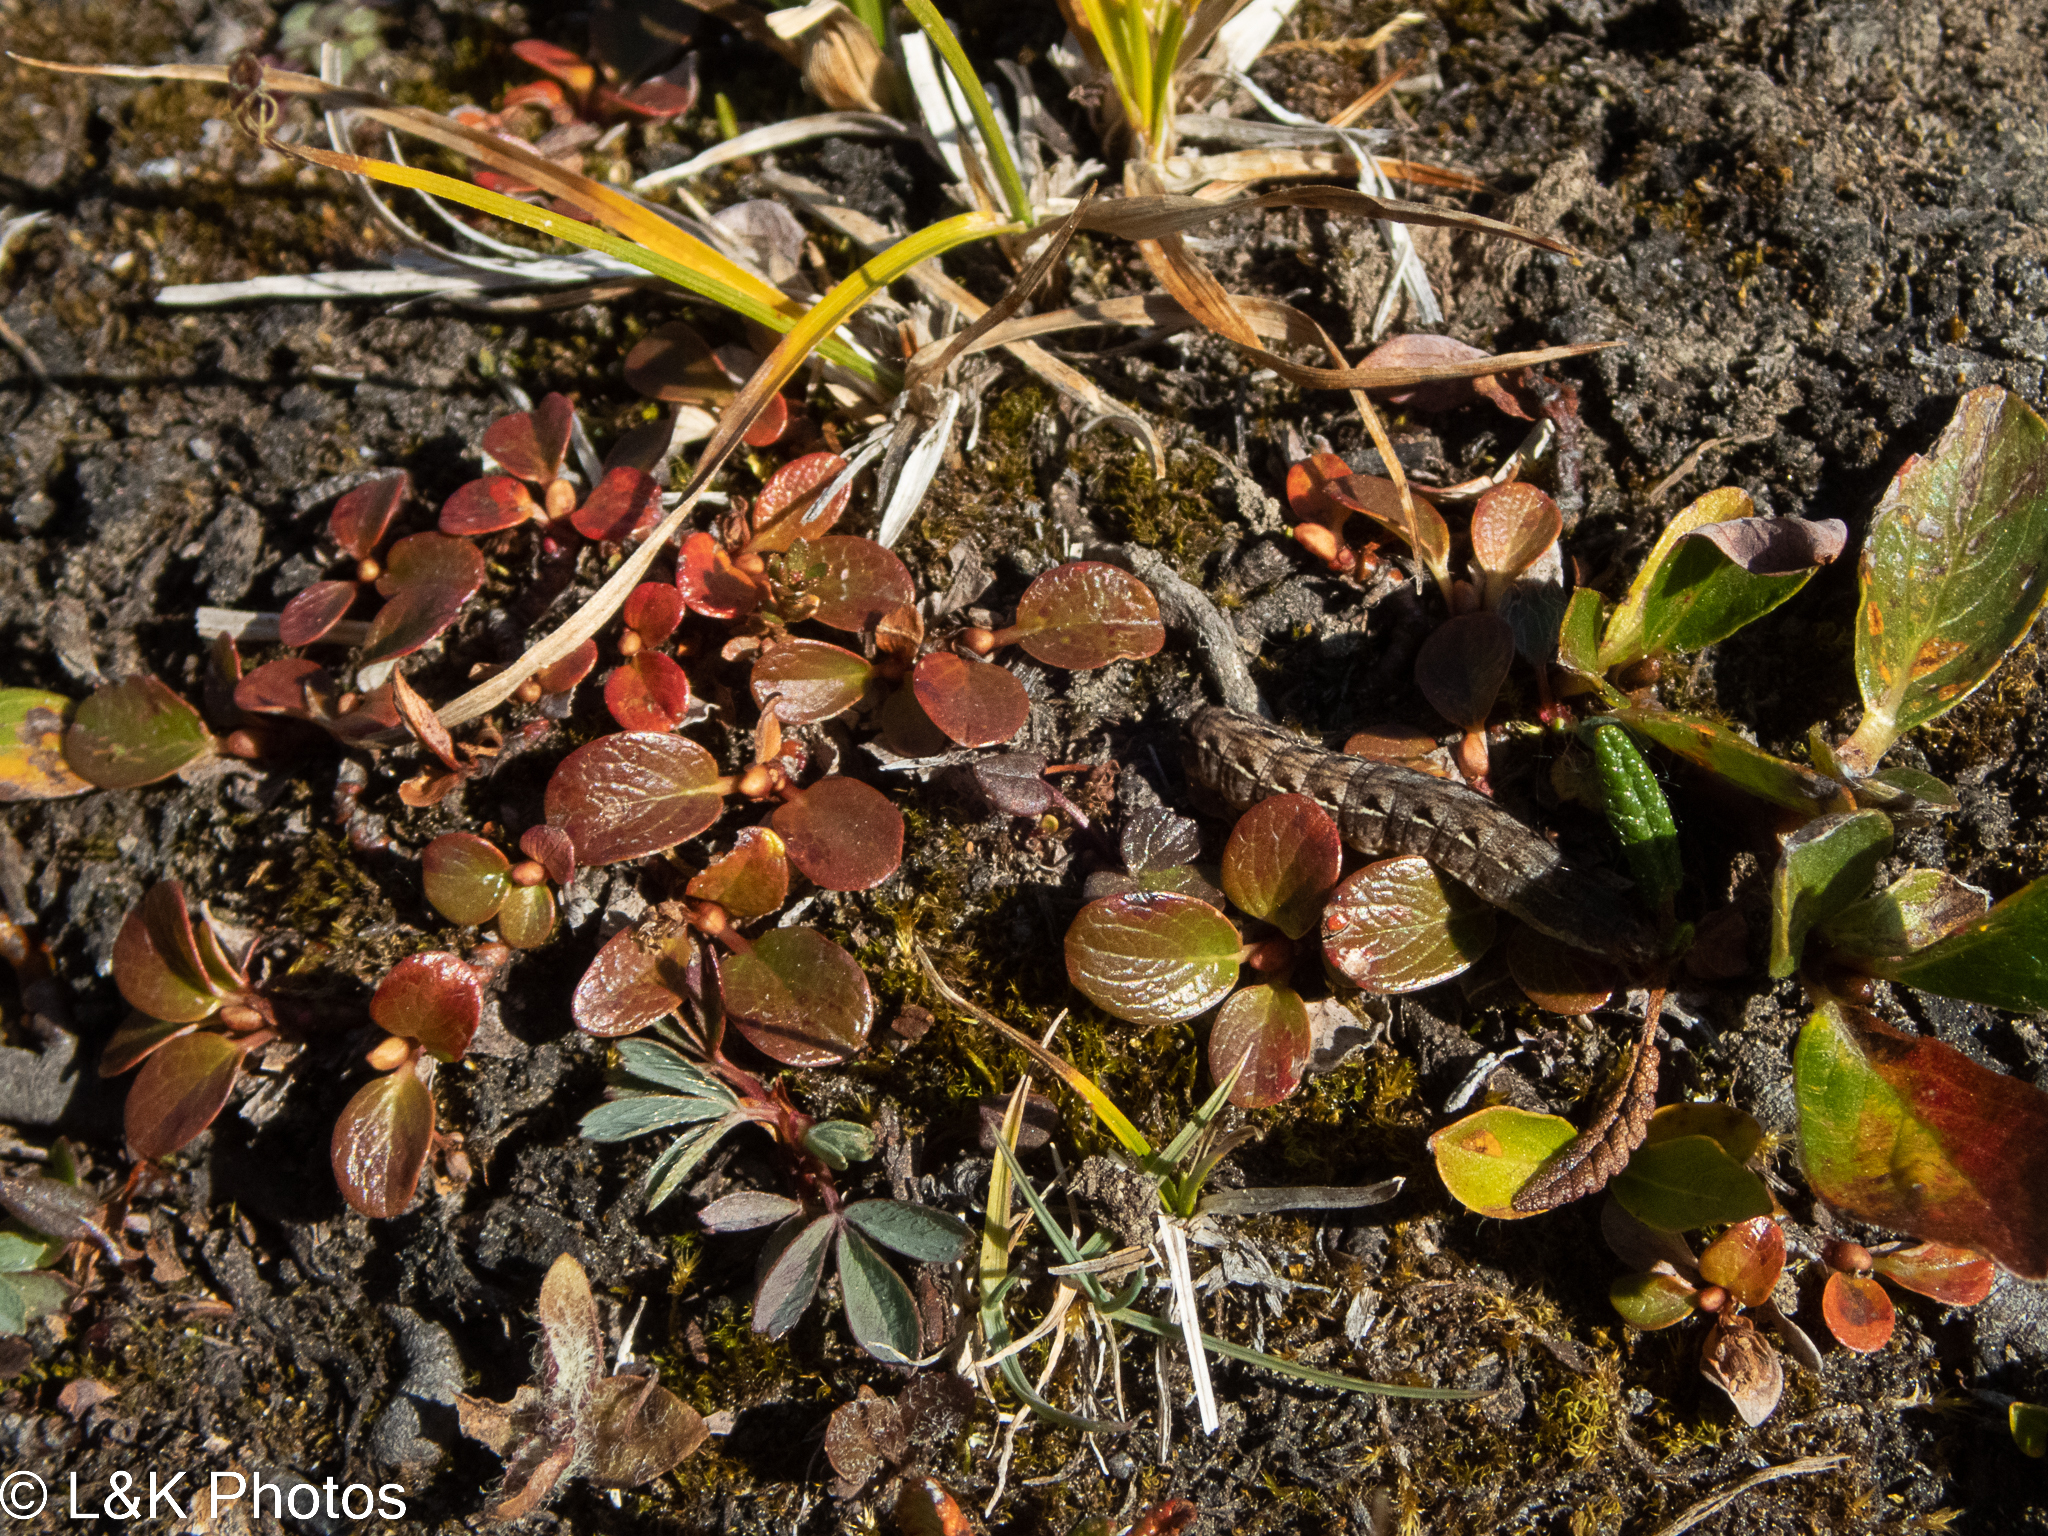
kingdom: Plantae
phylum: Tracheophyta
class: Magnoliopsida
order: Malpighiales
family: Salicaceae
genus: Salix
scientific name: Salix nivalis
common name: Dwarf snow willow
